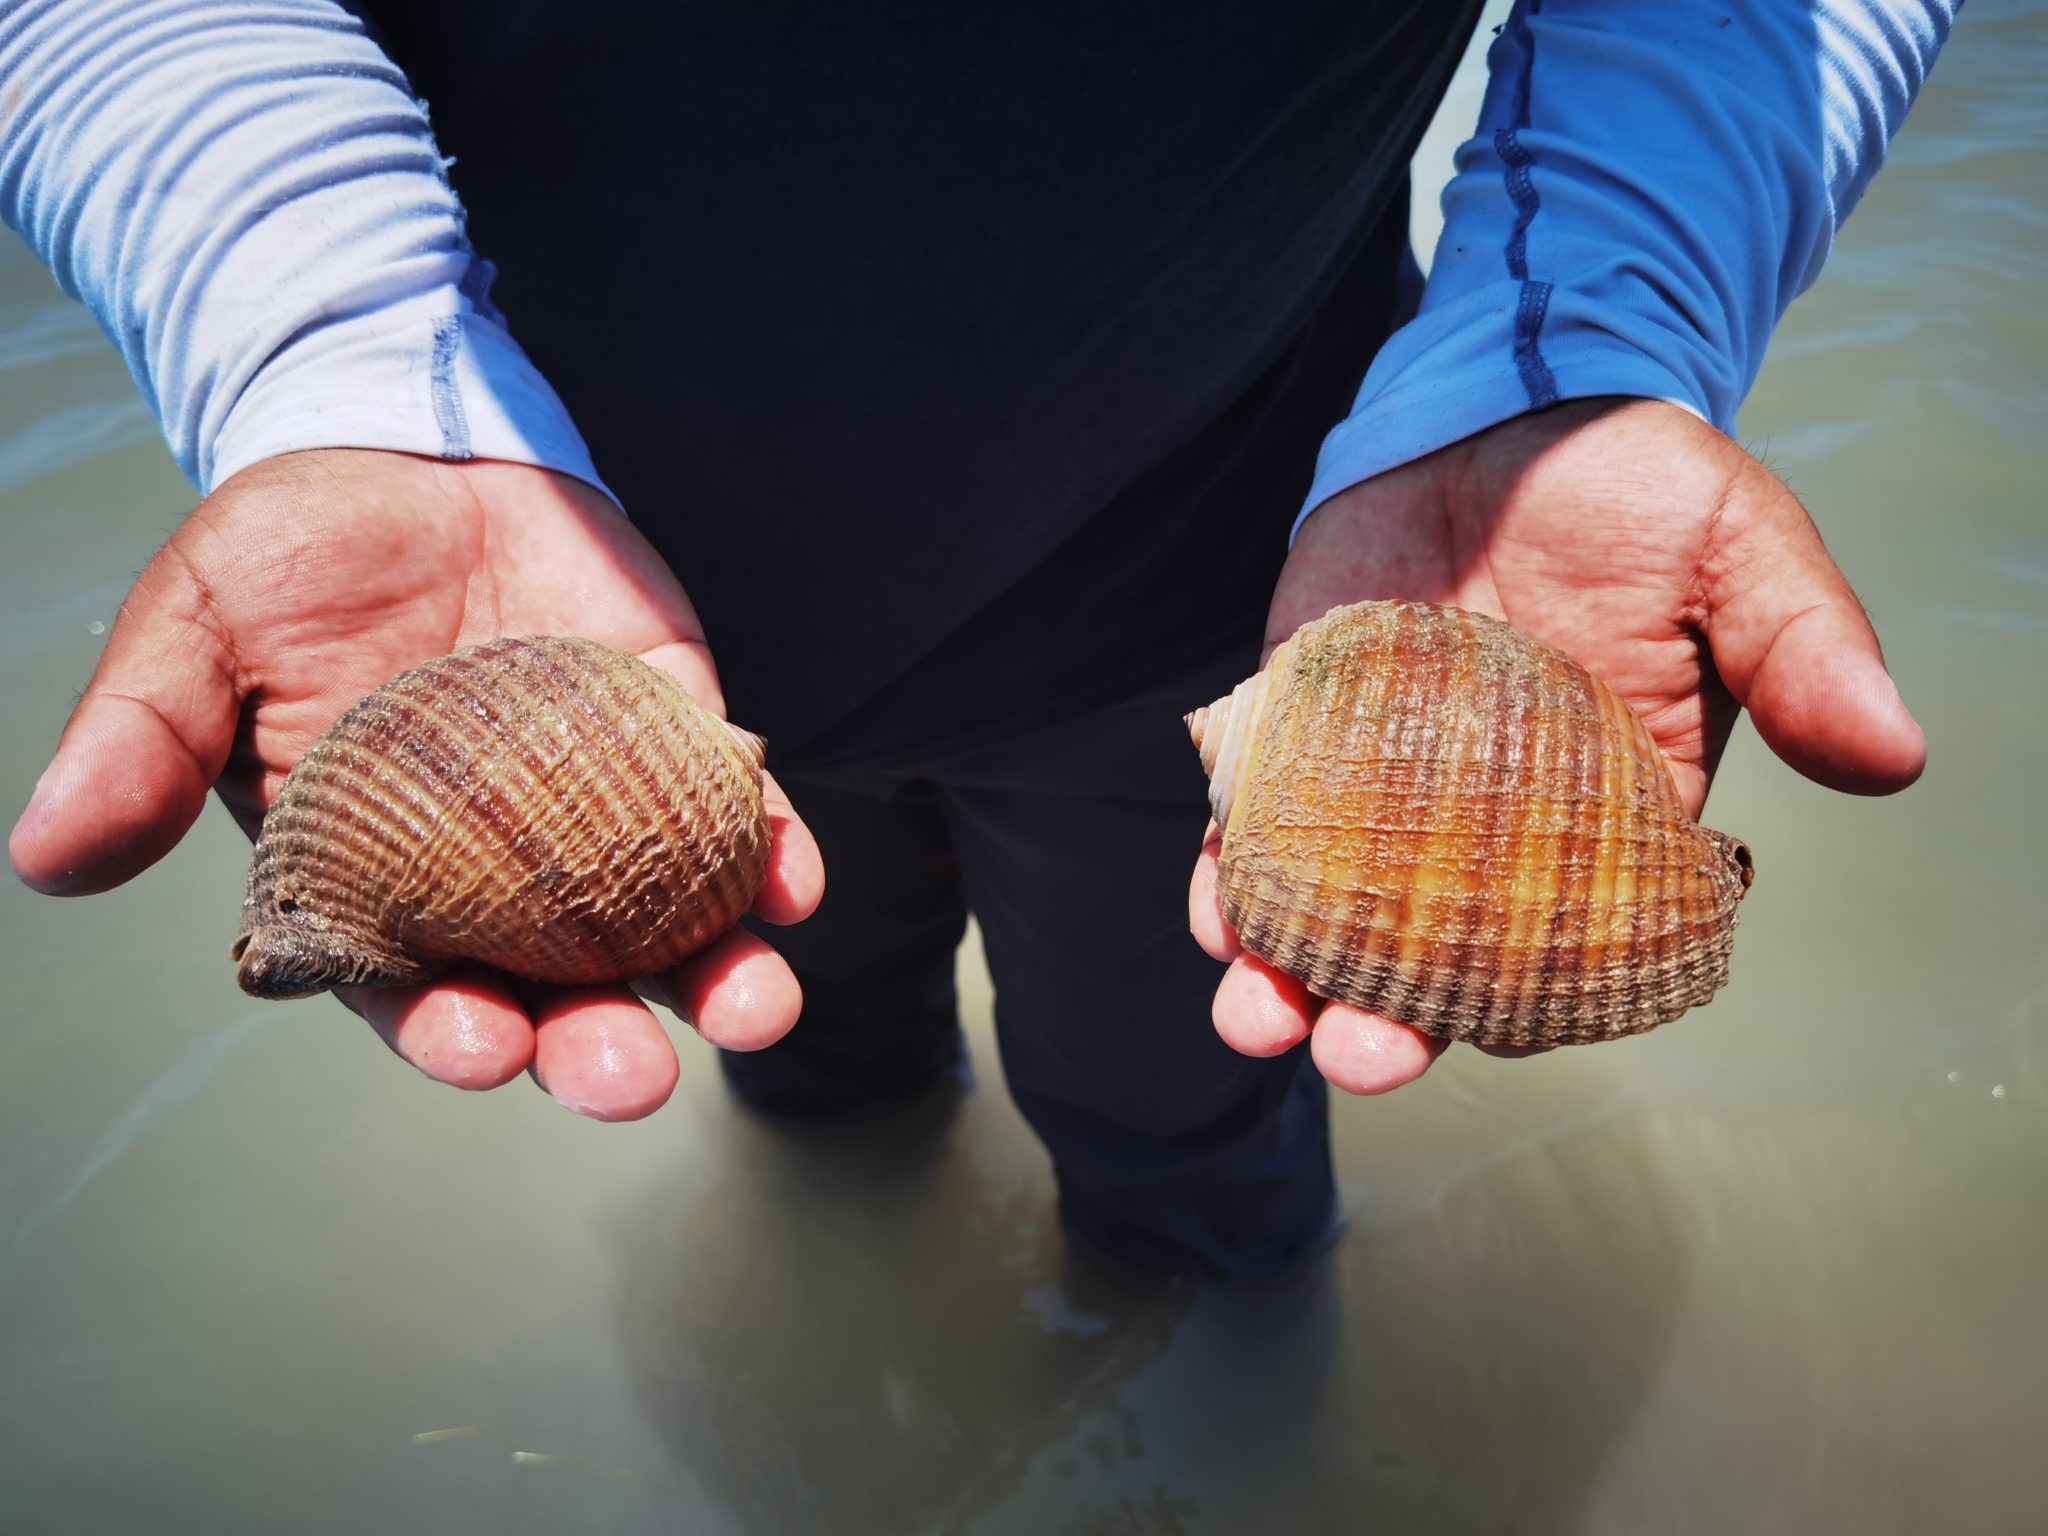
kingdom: Animalia
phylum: Mollusca
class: Gastropoda
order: Littorinimorpha
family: Tonnidae
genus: Tonna
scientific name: Tonna galea
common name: Giant tun
